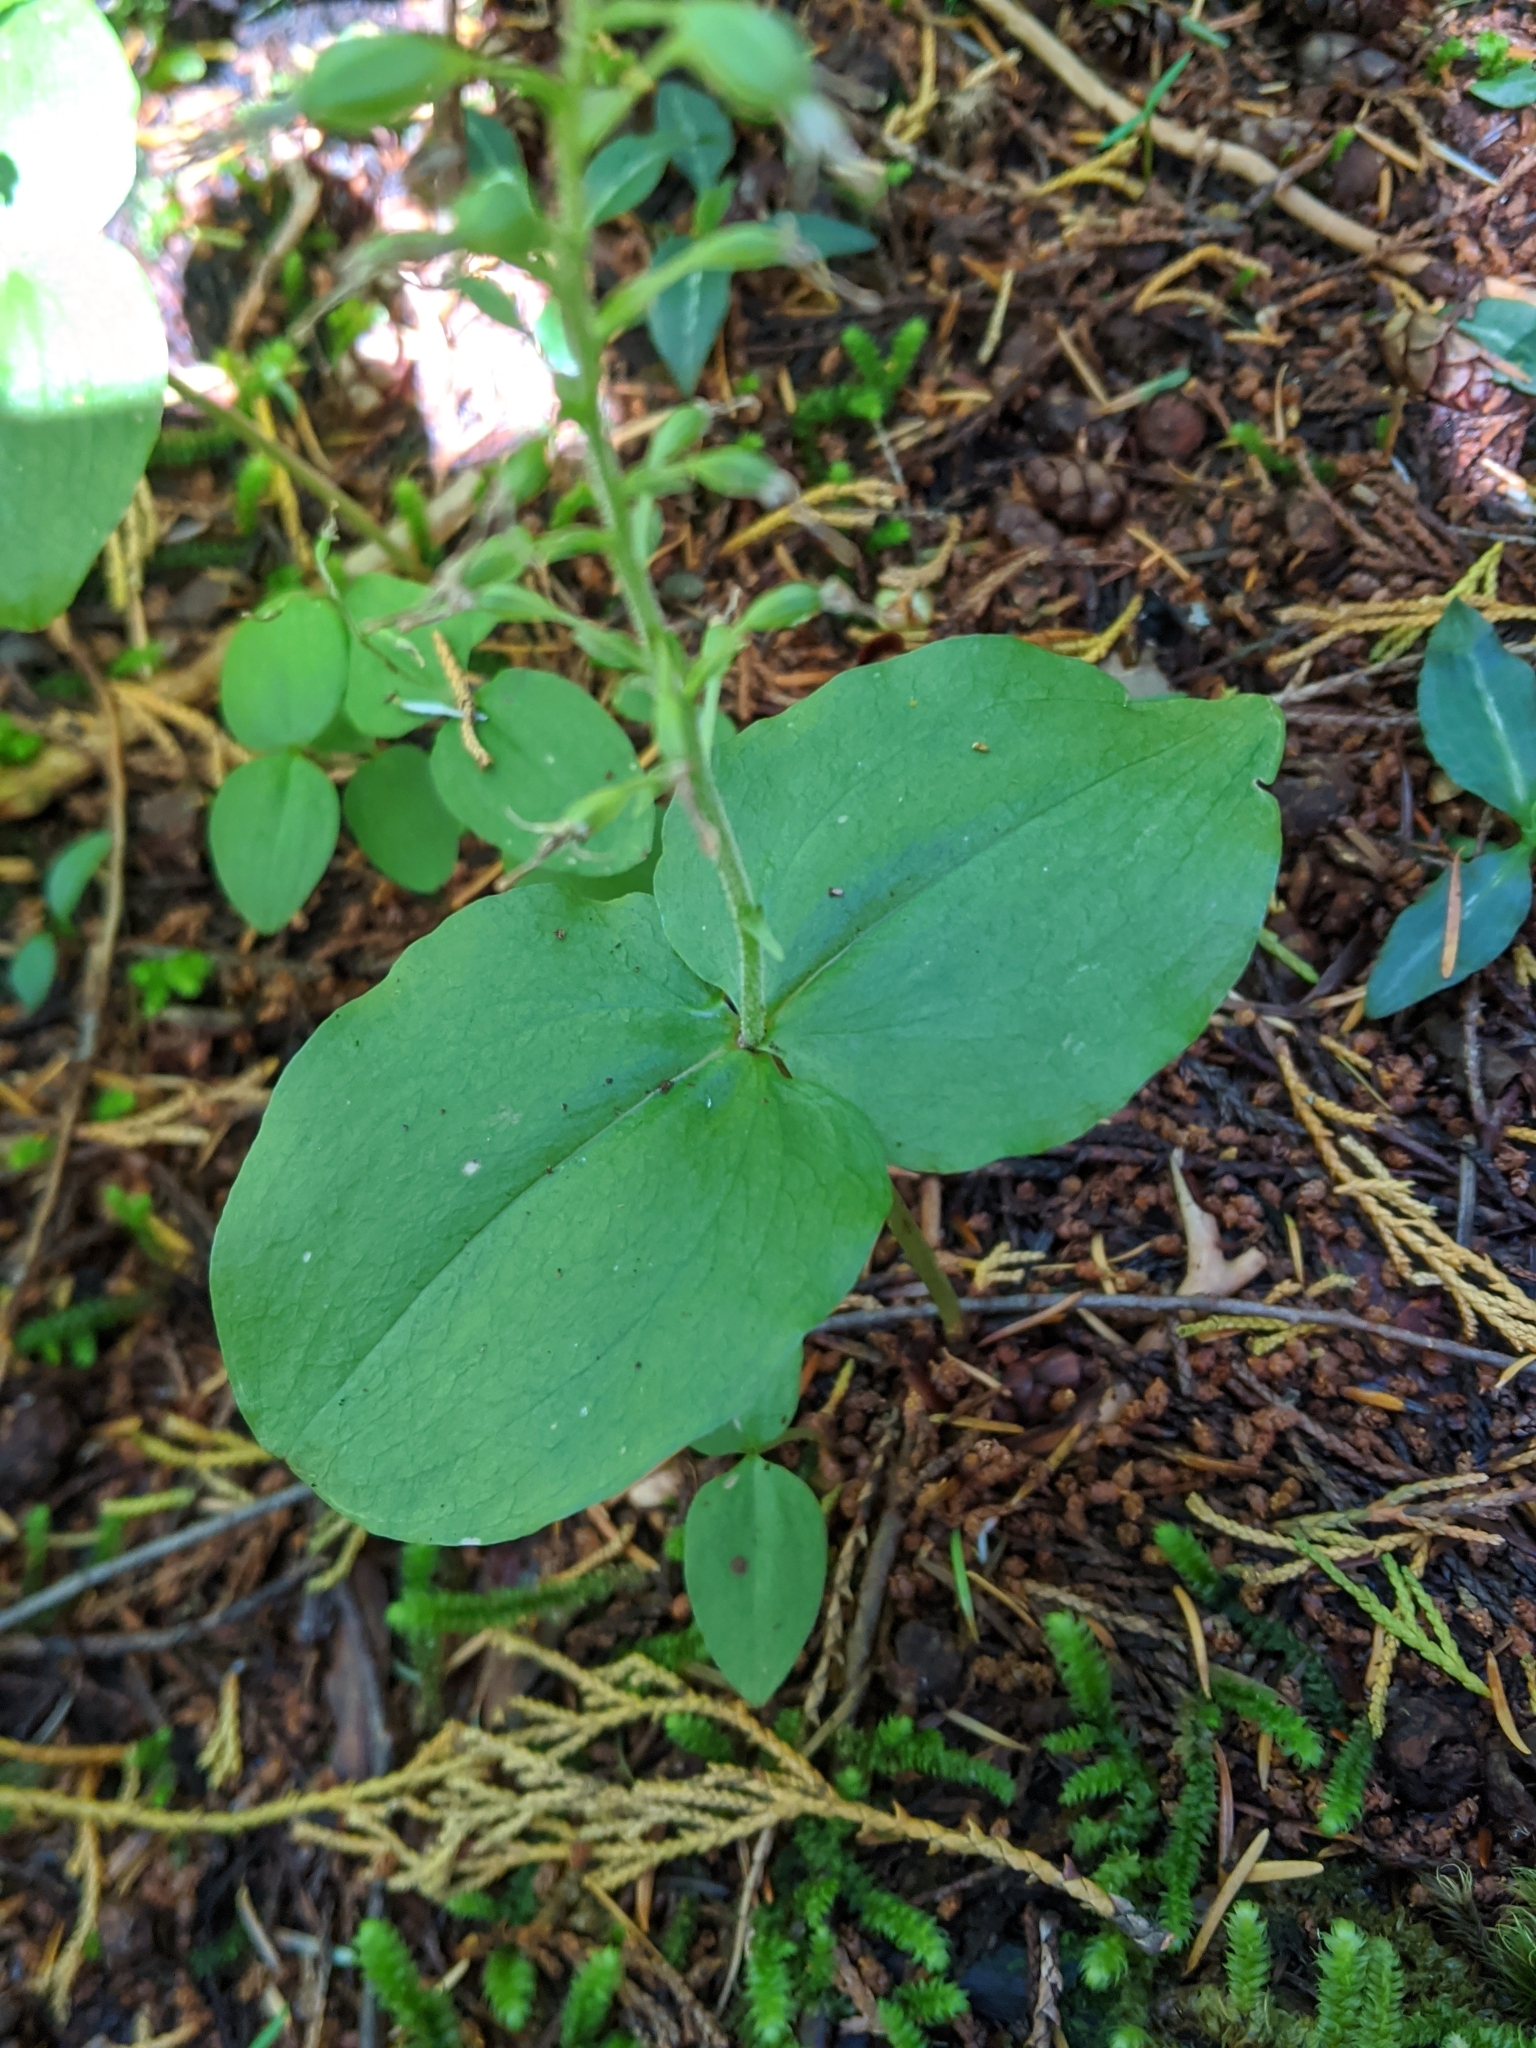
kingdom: Plantae
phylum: Tracheophyta
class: Liliopsida
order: Asparagales
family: Orchidaceae
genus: Neottia
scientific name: Neottia banksiana
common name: Northwestern twayblade
